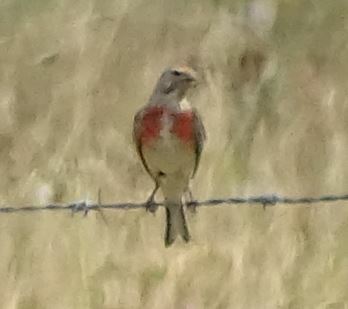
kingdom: Animalia
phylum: Chordata
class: Aves
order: Passeriformes
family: Fringillidae
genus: Linaria
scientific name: Linaria cannabina
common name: Common linnet
